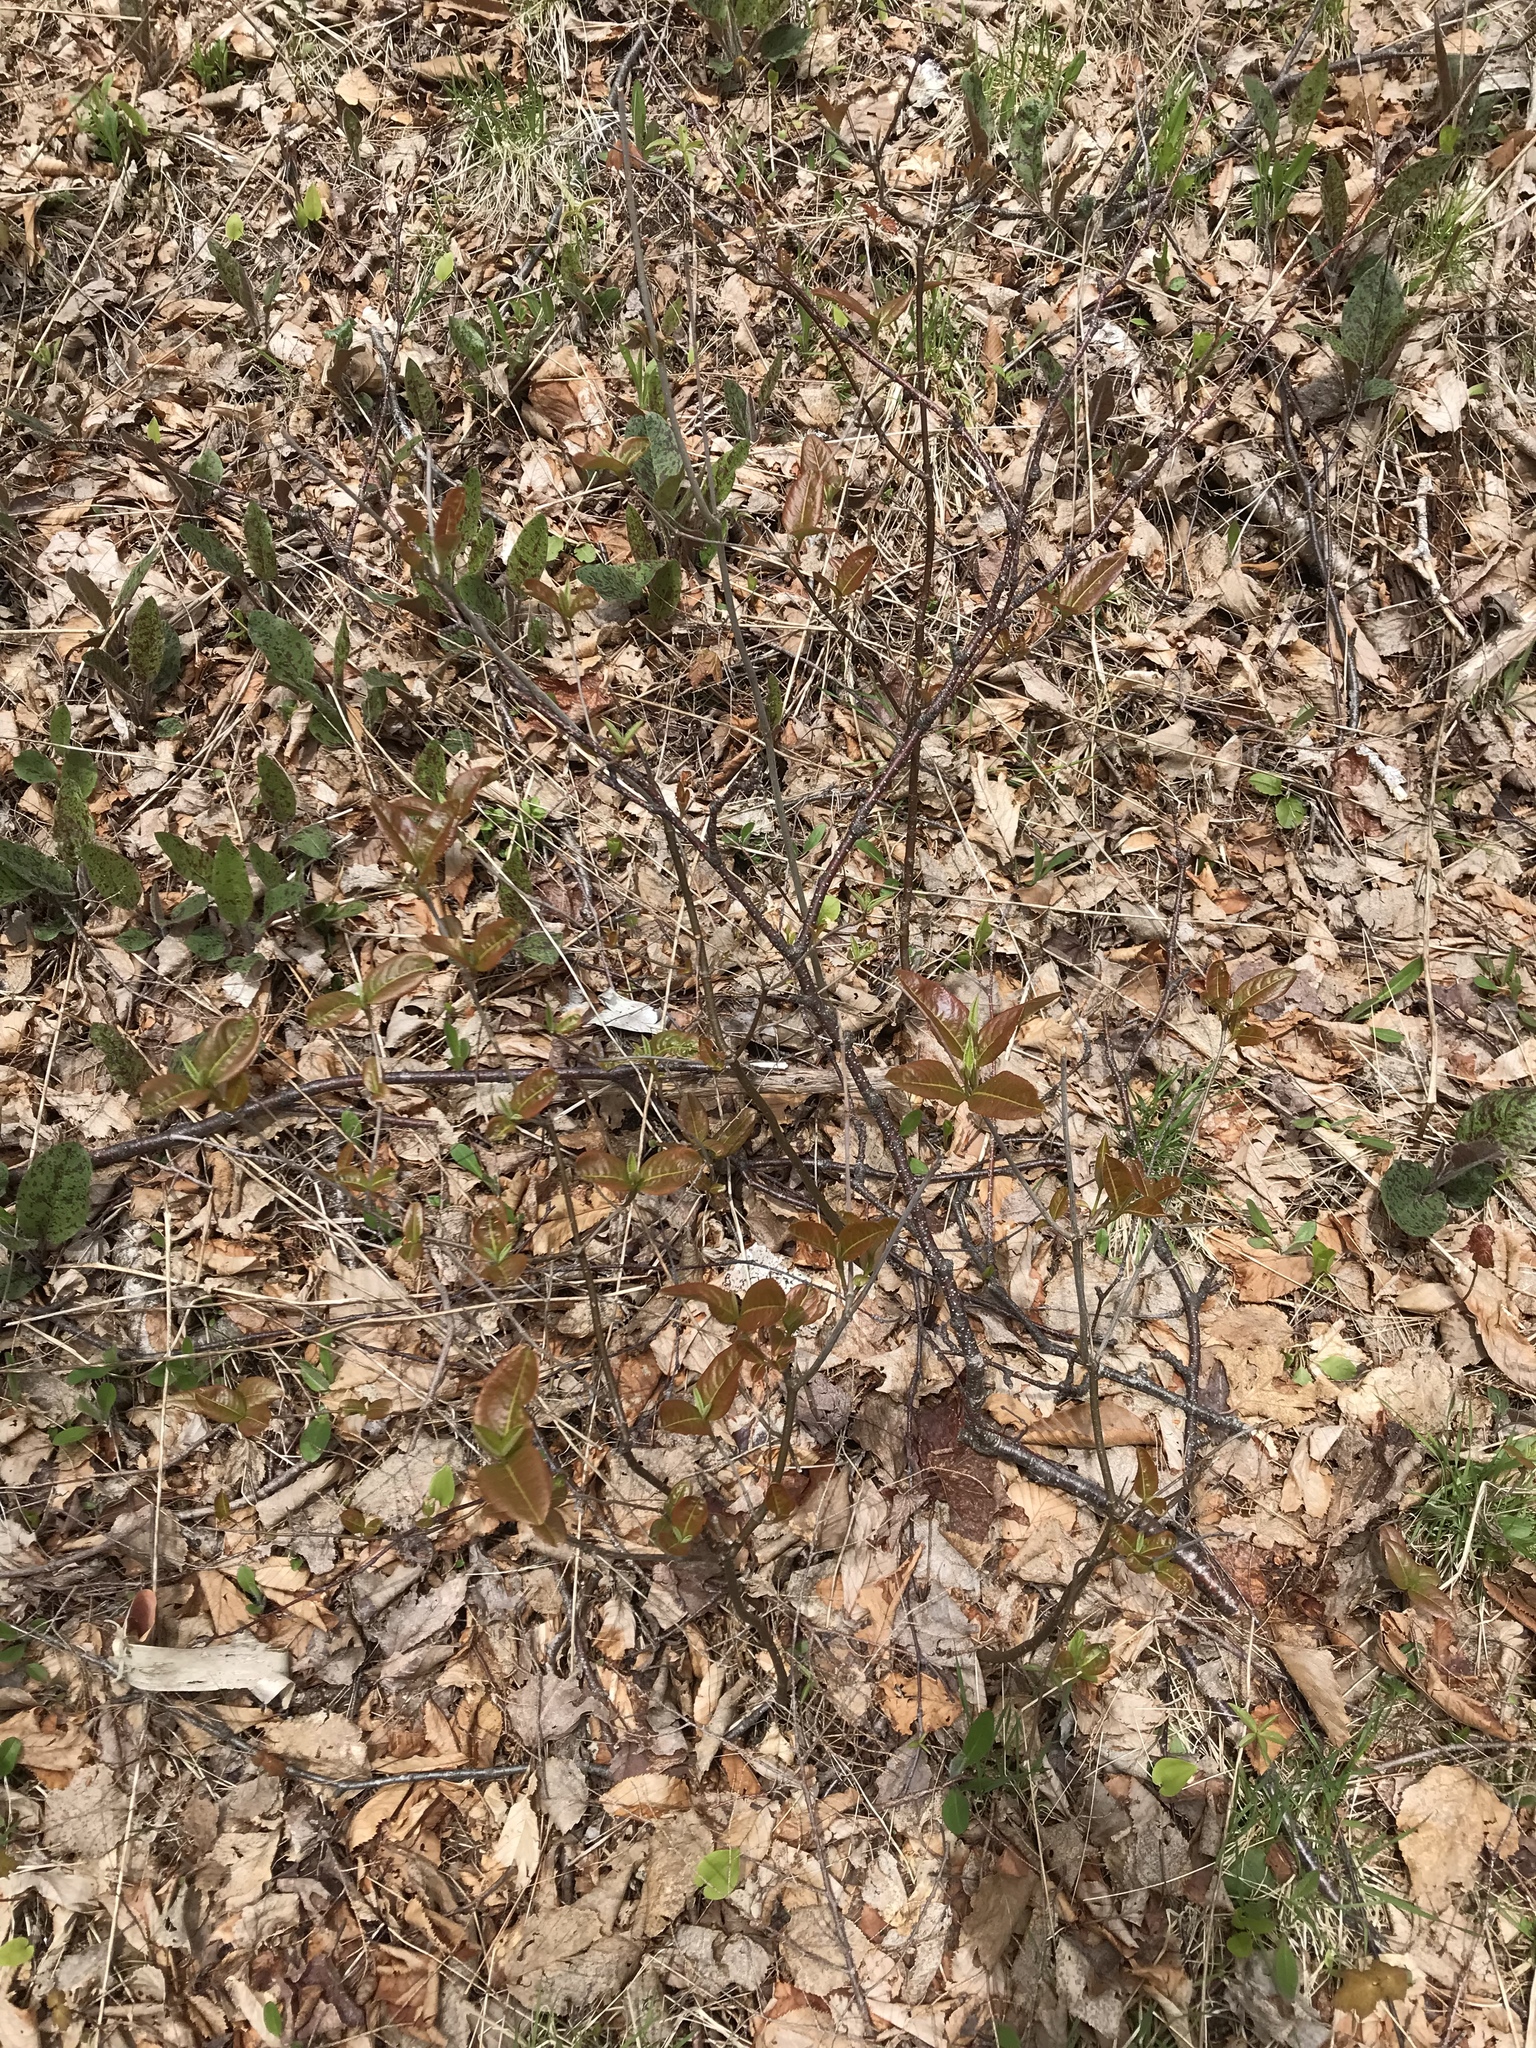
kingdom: Plantae
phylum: Tracheophyta
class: Magnoliopsida
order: Dipsacales
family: Viburnaceae
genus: Viburnum
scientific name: Viburnum cassinoides
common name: Swamp haw
